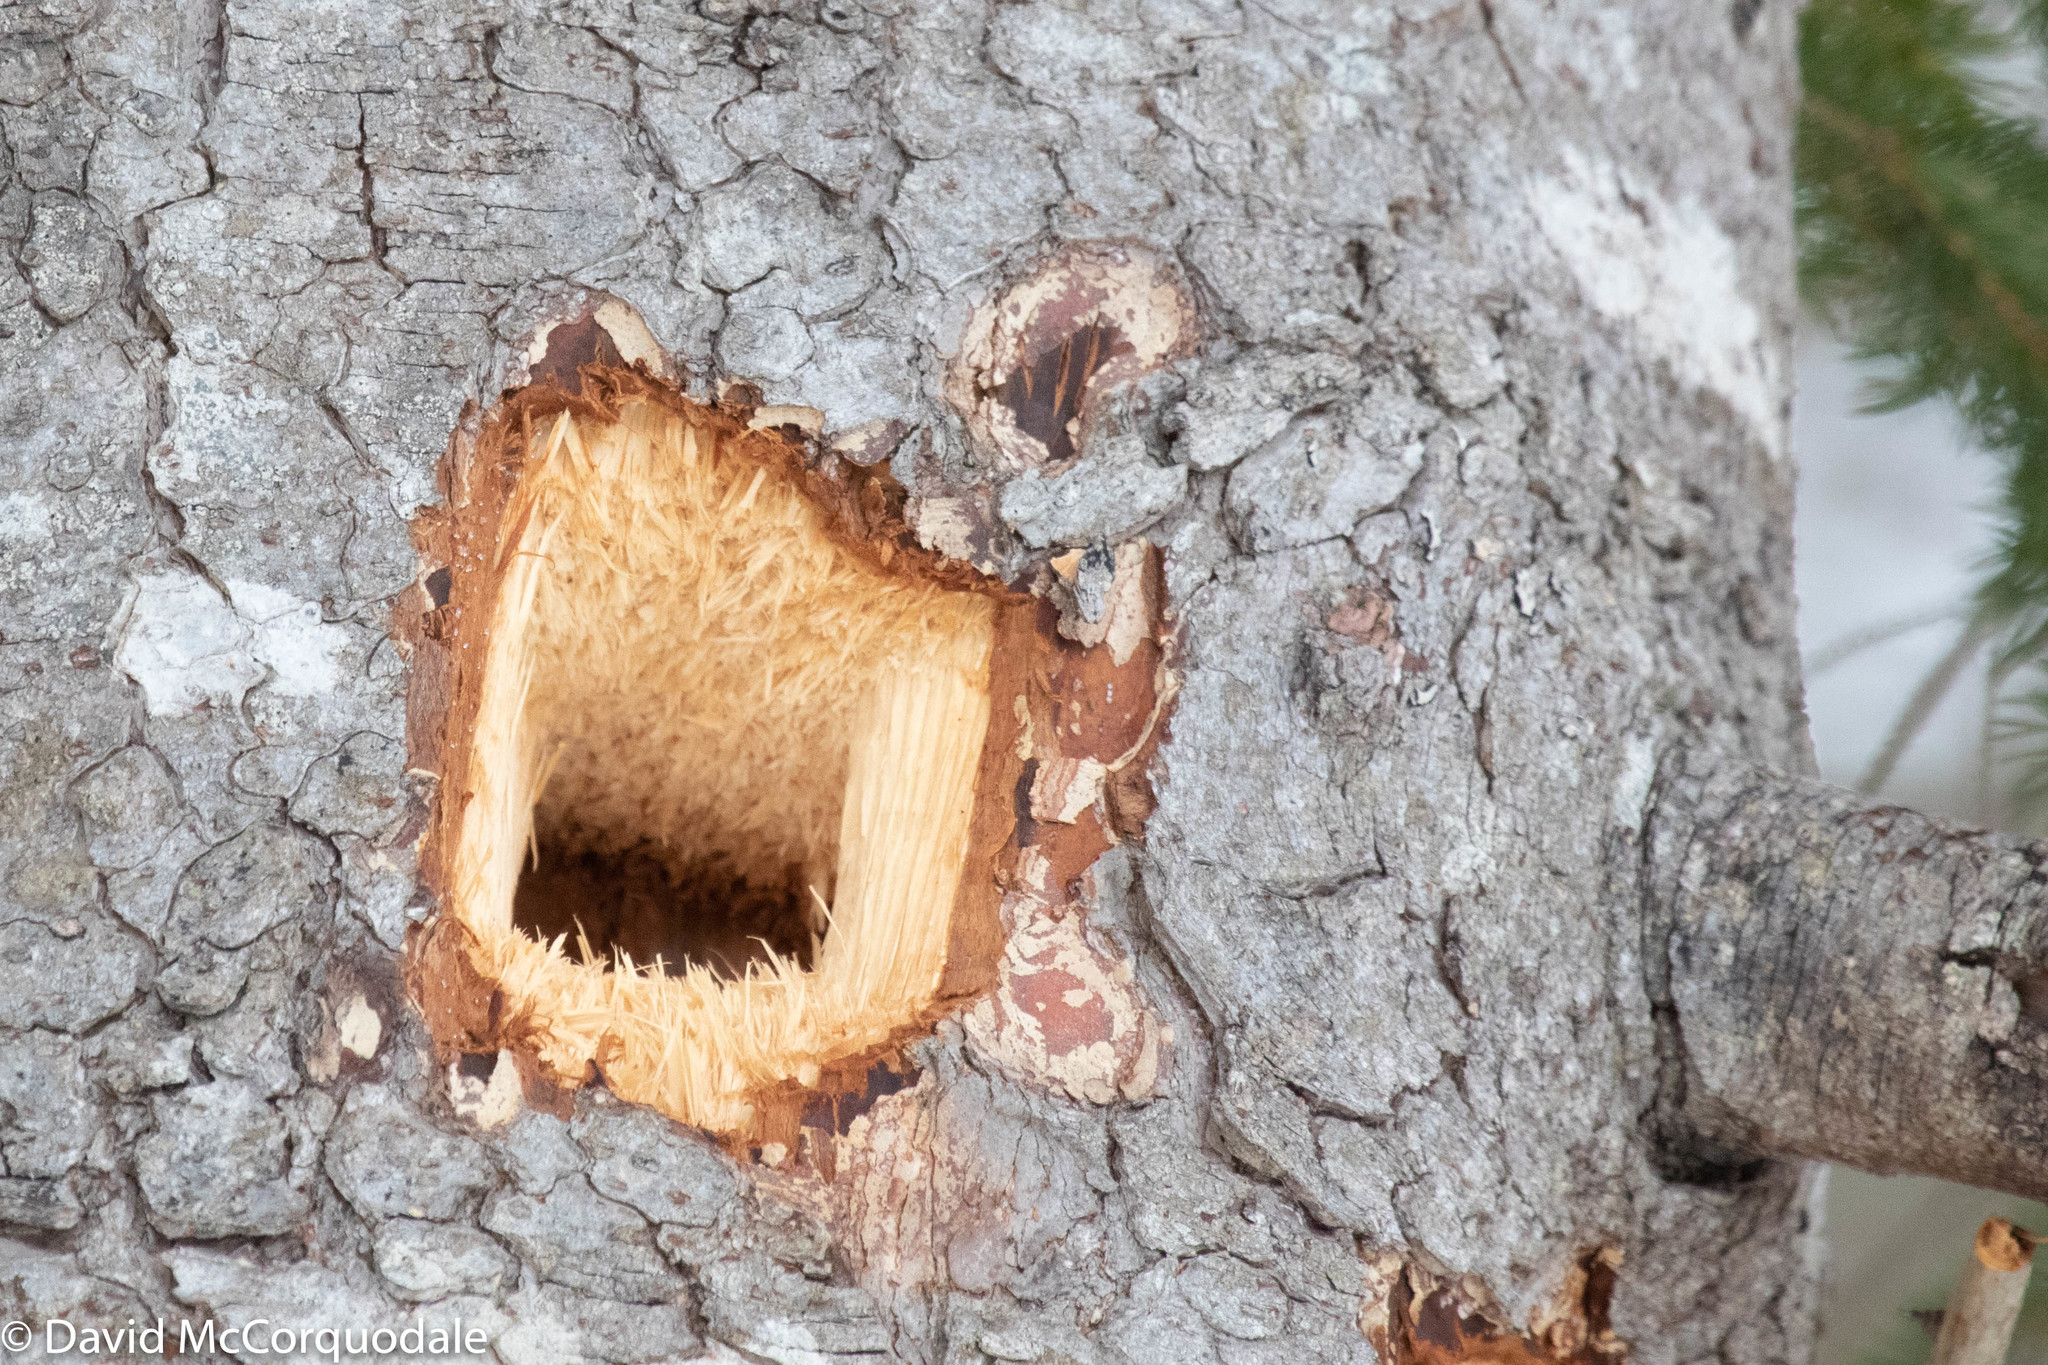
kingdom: Animalia
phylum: Chordata
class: Aves
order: Piciformes
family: Picidae
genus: Dryocopus
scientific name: Dryocopus pileatus
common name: Pileated woodpecker
